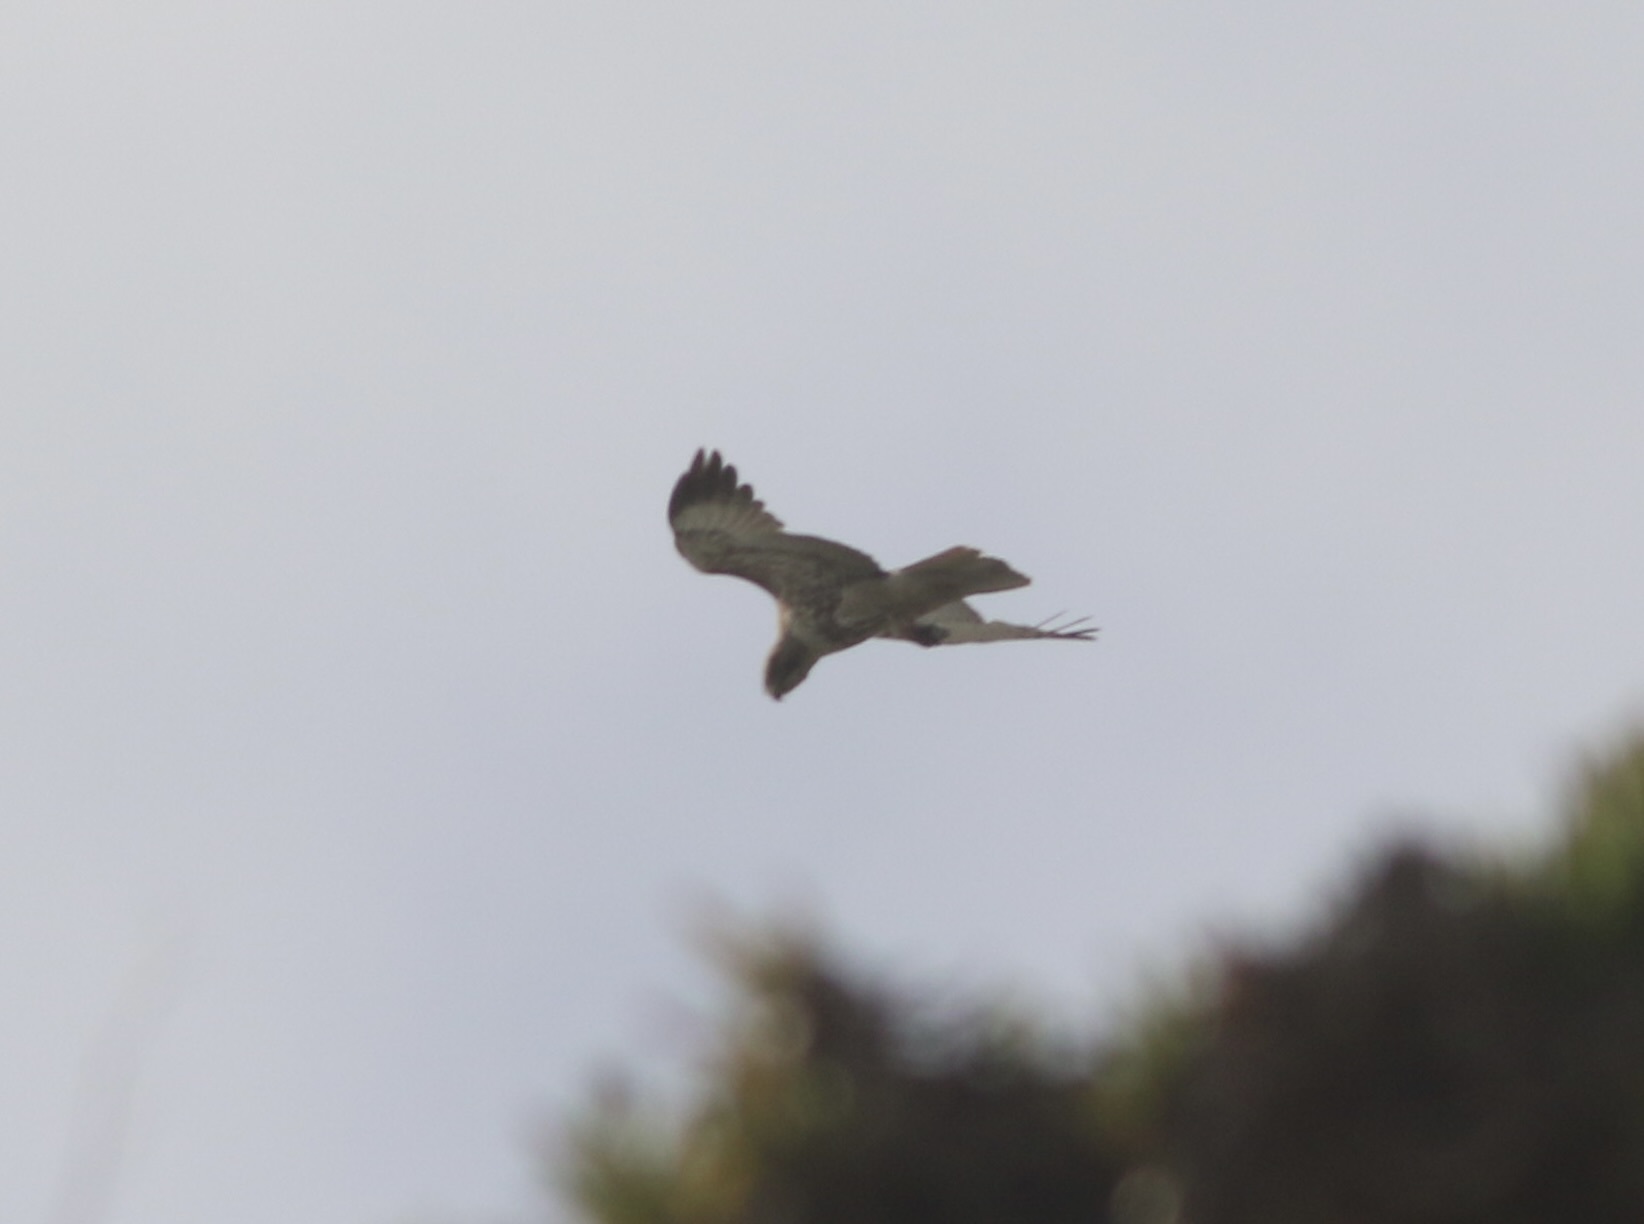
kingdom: Animalia
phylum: Chordata
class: Aves
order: Accipitriformes
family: Accipitridae
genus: Buteo
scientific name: Buteo jamaicensis
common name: Red-tailed hawk
